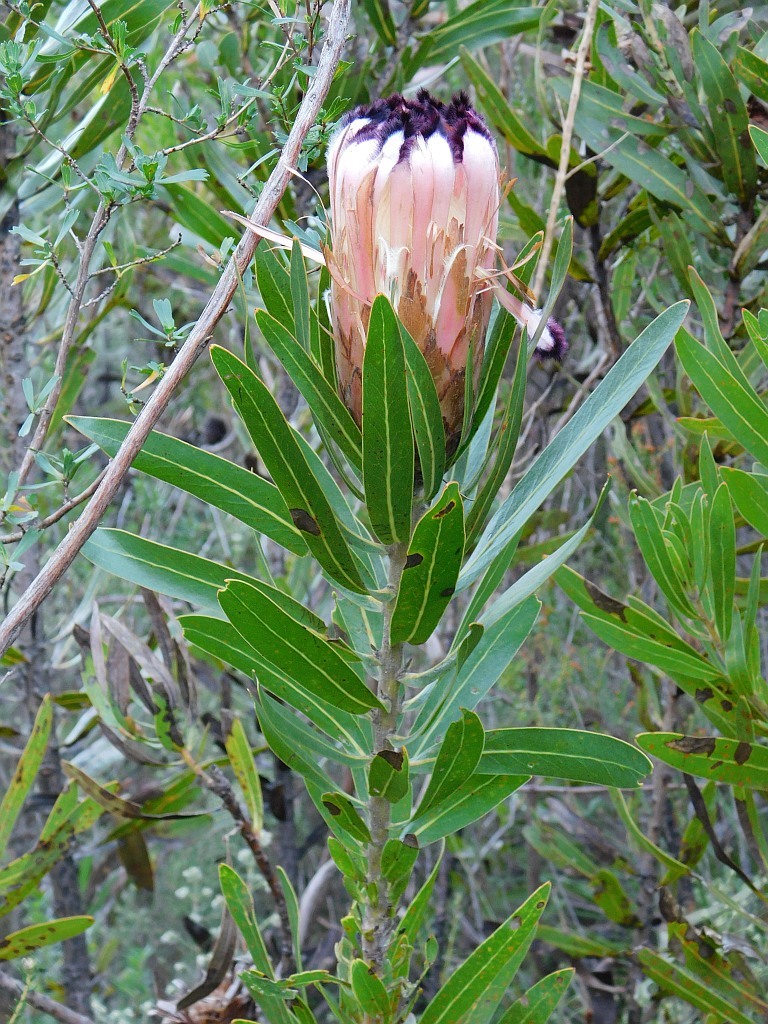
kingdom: Plantae
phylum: Tracheophyta
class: Magnoliopsida
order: Proteales
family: Proteaceae
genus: Protea
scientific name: Protea neriifolia
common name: Blue sugarbush
